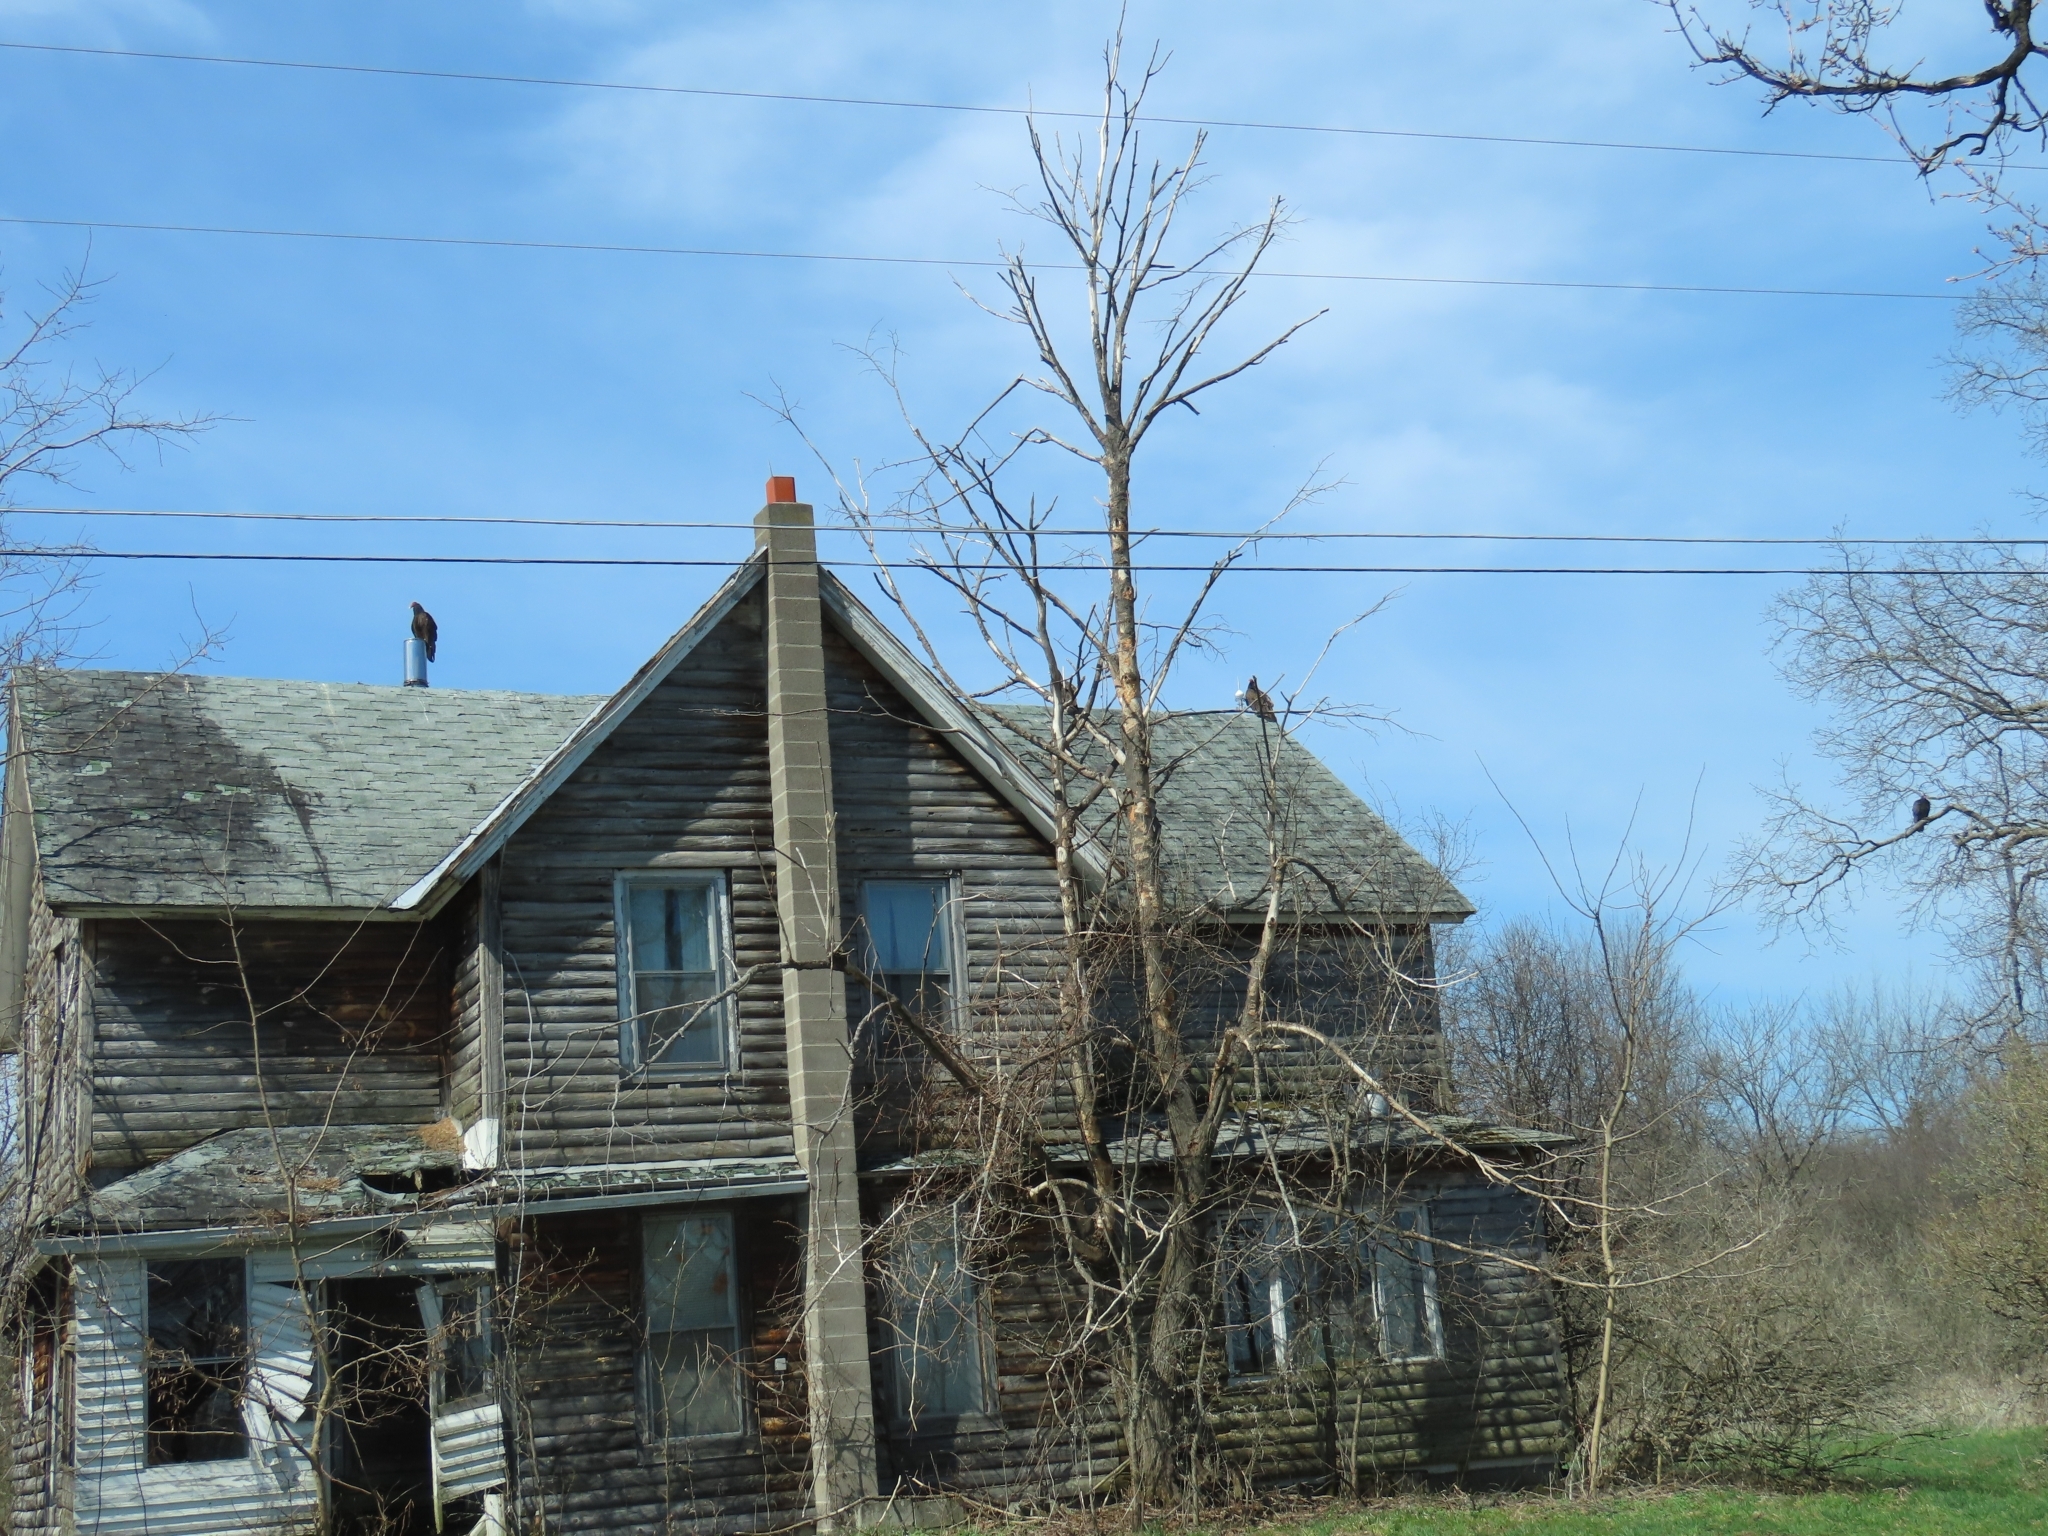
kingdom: Animalia
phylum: Chordata
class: Aves
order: Accipitriformes
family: Cathartidae
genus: Cathartes
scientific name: Cathartes aura
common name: Turkey vulture
